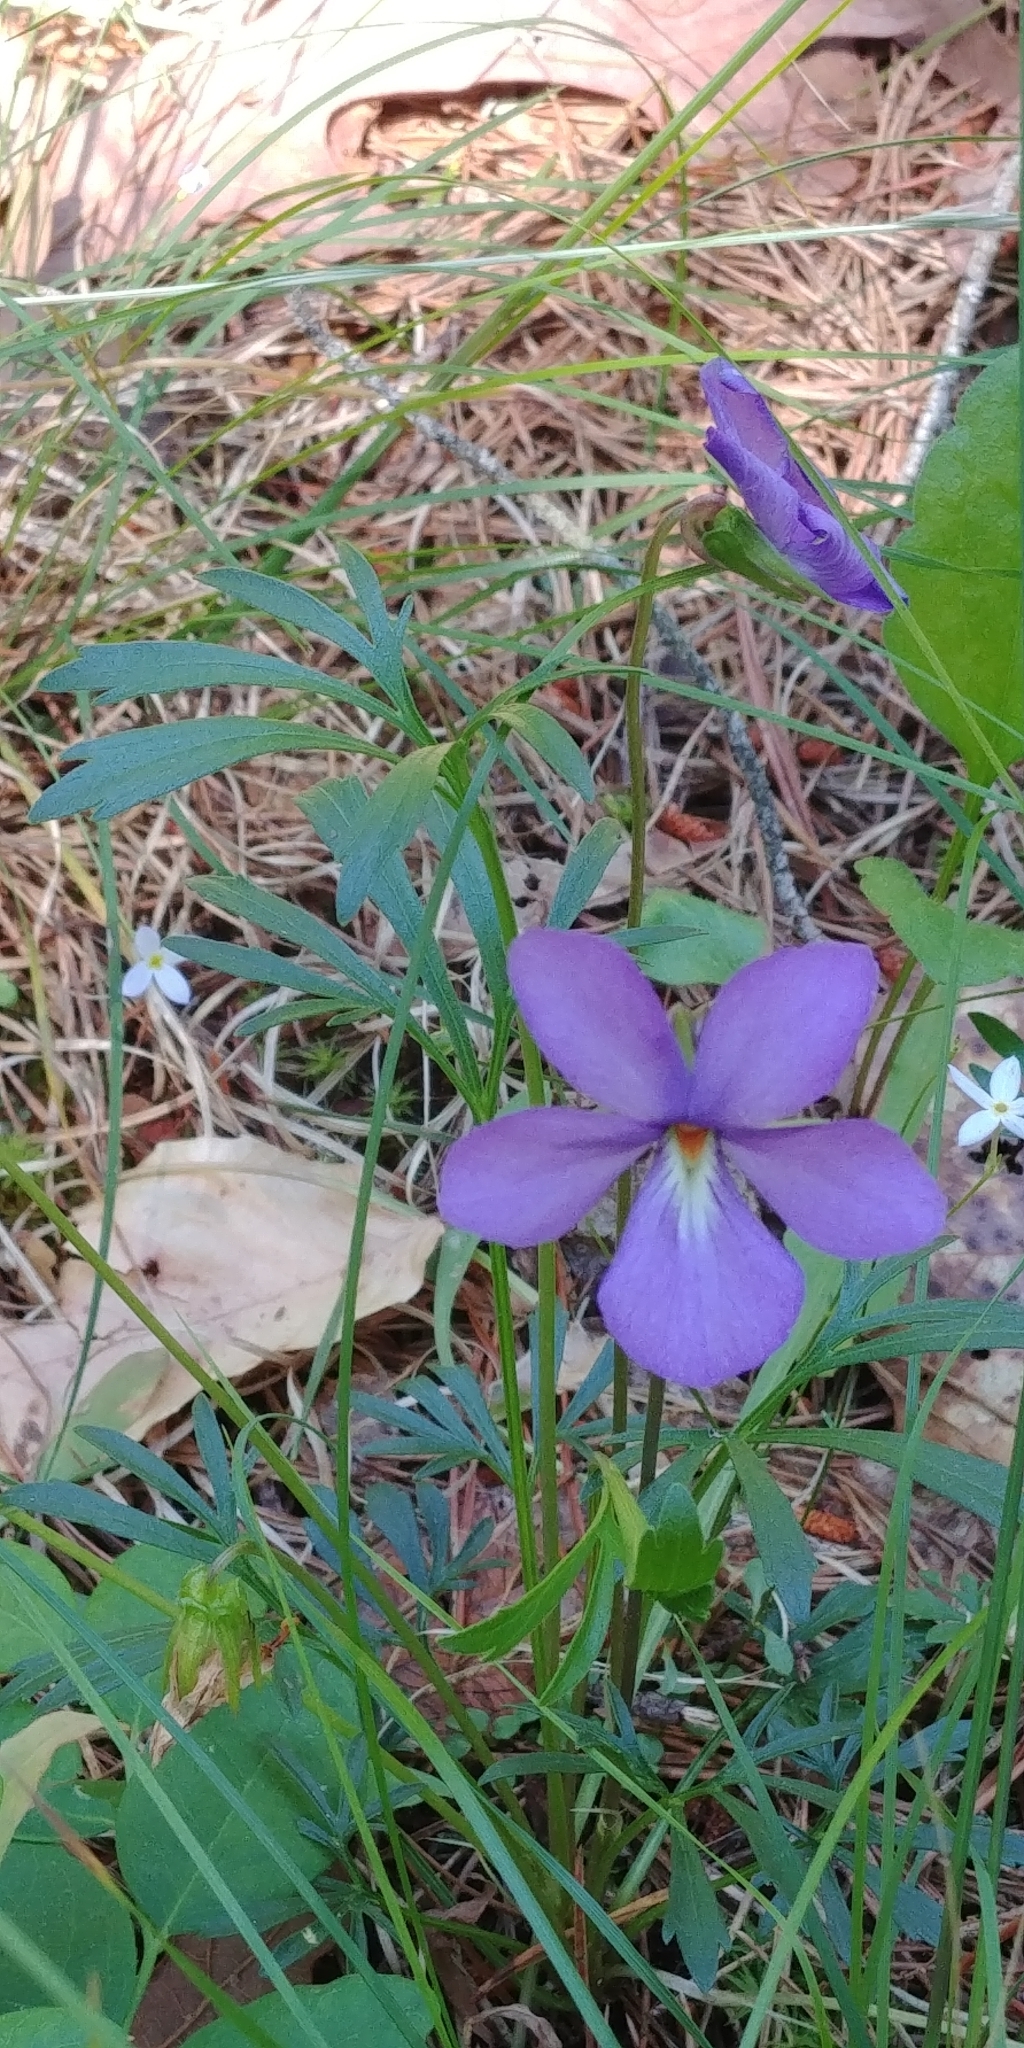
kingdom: Plantae
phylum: Tracheophyta
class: Magnoliopsida
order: Malpighiales
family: Violaceae
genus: Viola
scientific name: Viola pedata
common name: Pansy violet
